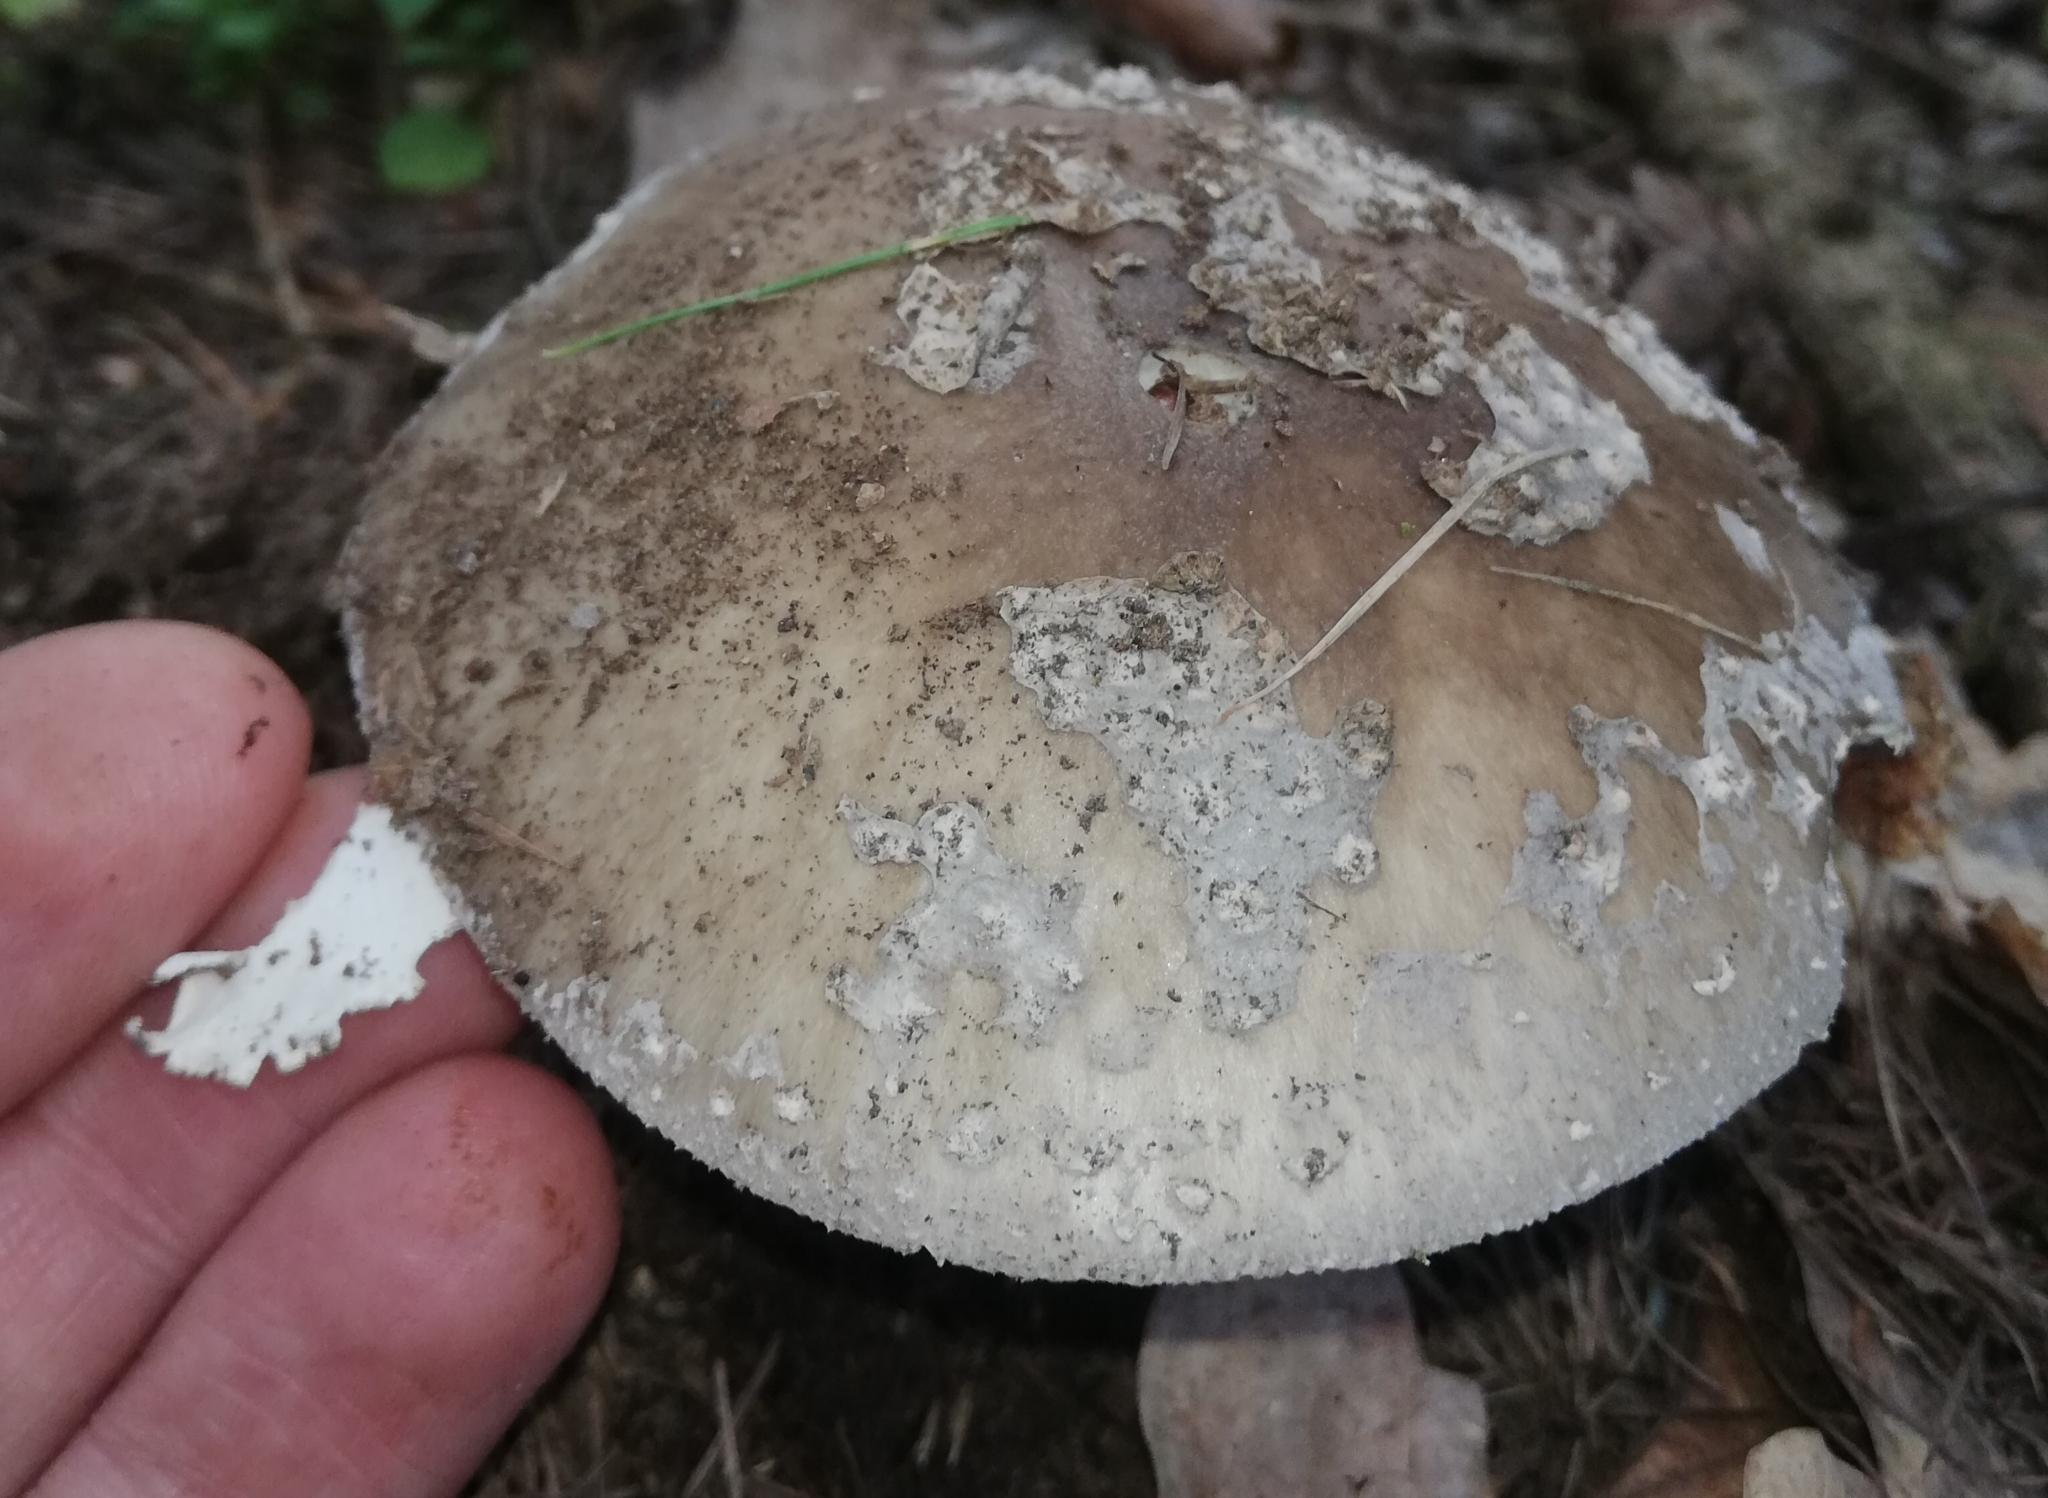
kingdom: Fungi
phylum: Basidiomycota
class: Agaricomycetes
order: Agaricales
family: Amanitaceae
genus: Amanita
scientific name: Amanita excelsa
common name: European false blusher
